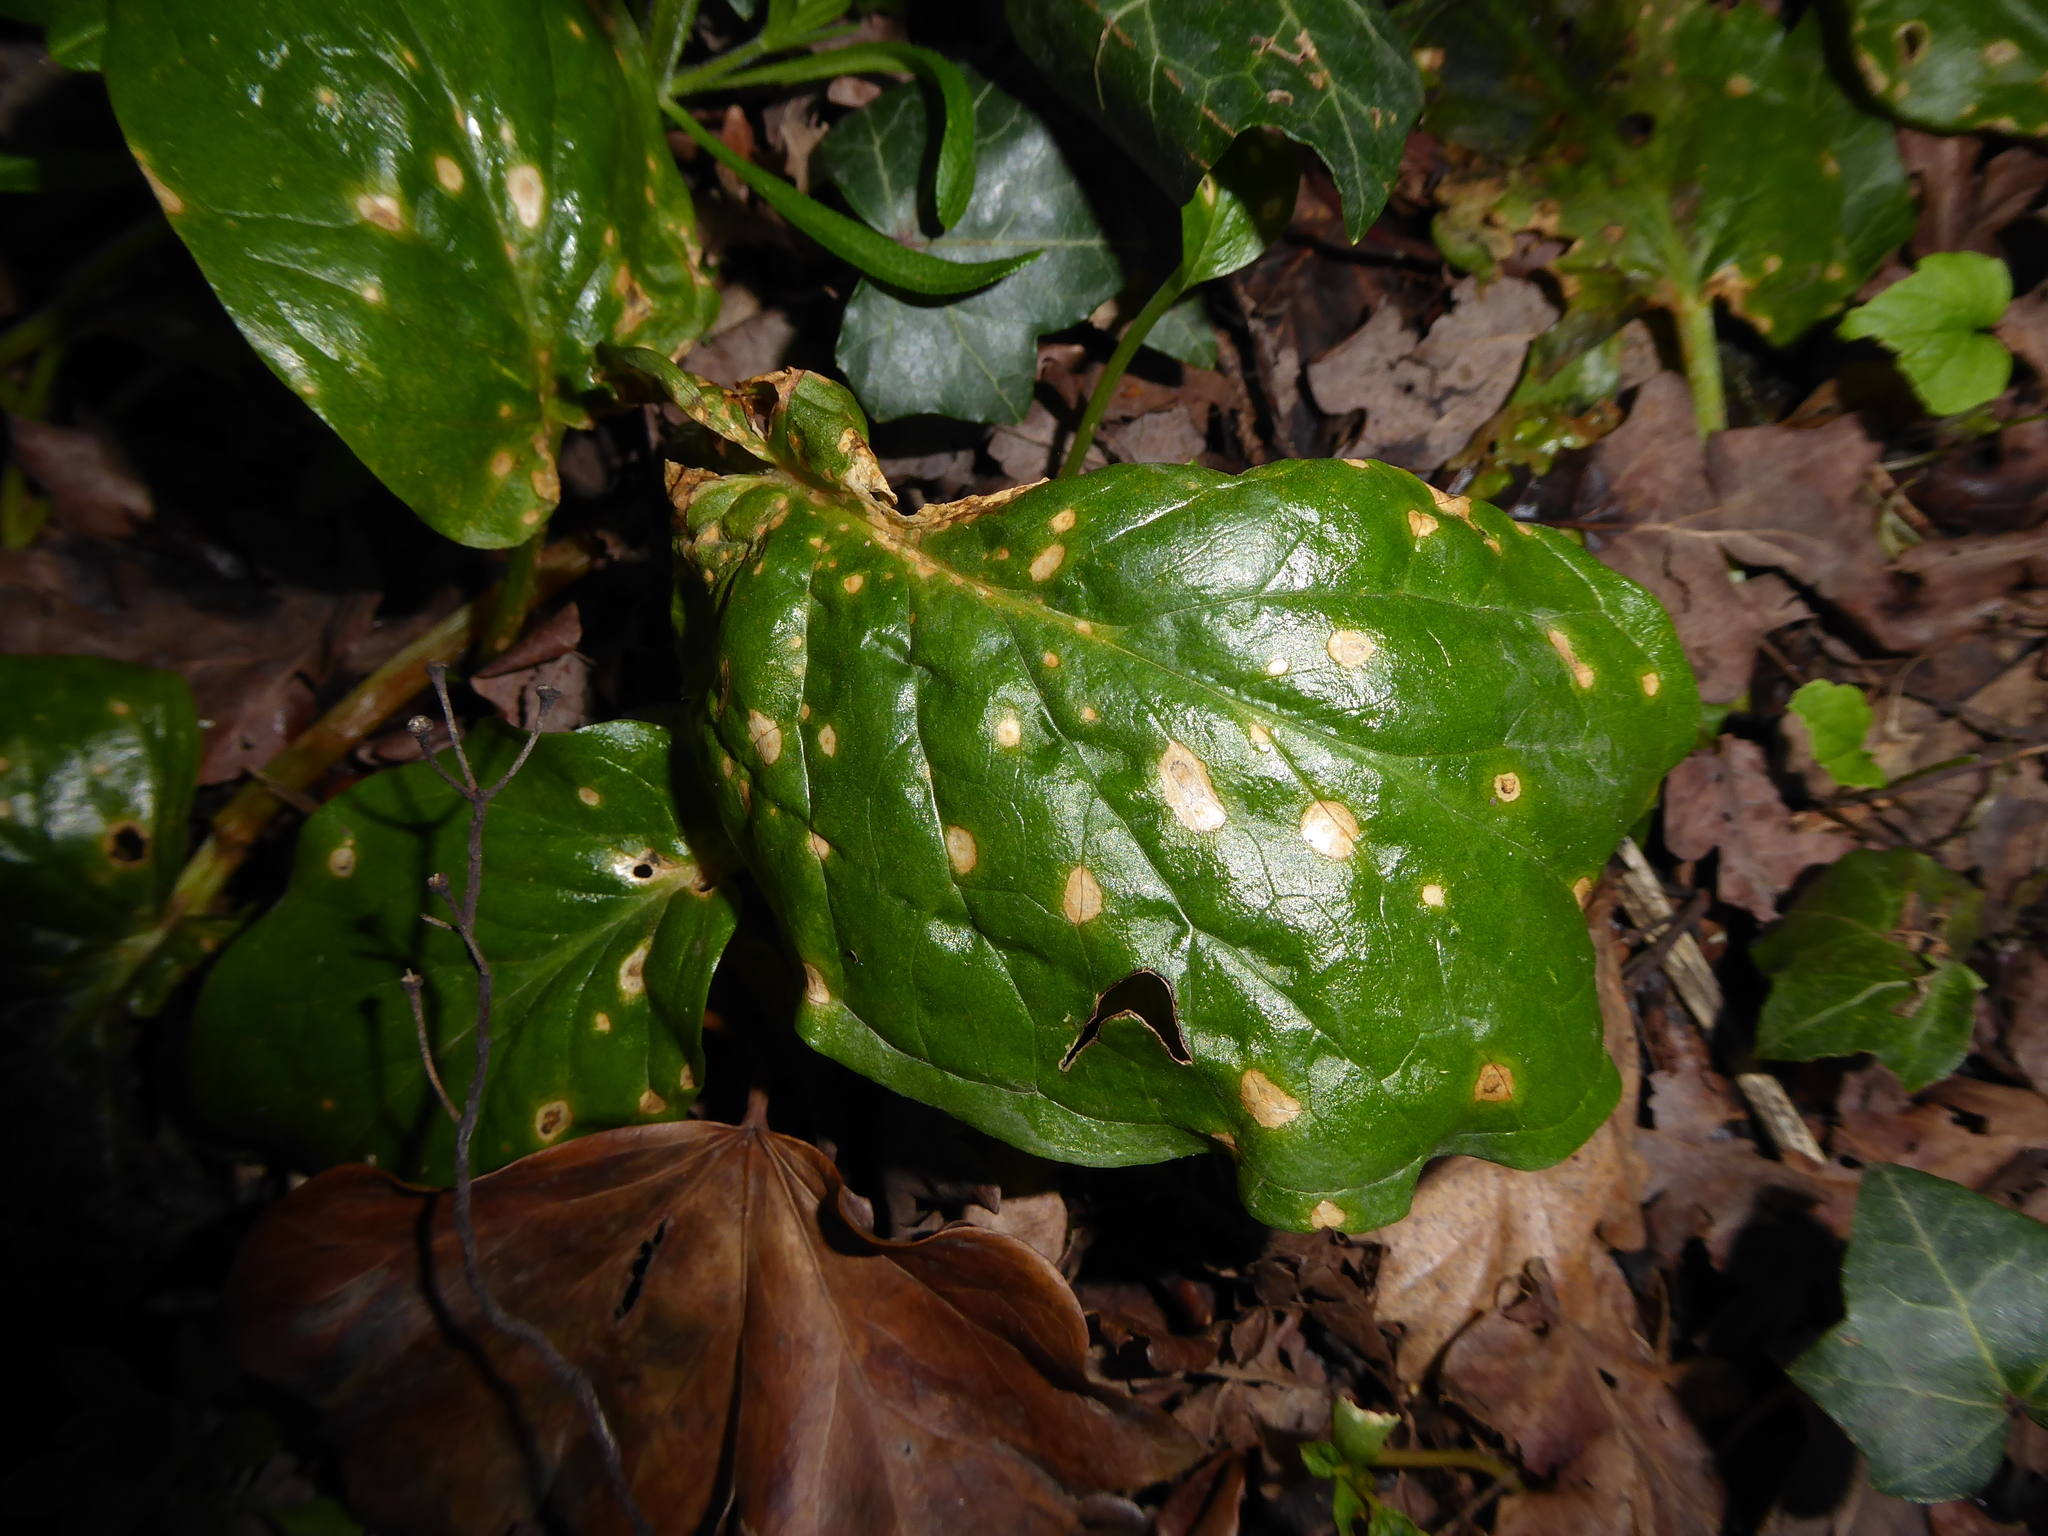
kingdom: Fungi
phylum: Ascomycota
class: Sordariomycetes
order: Glomerellales
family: Plectosphaerellaceae
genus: Spermosporina
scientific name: Spermosporina aricola
